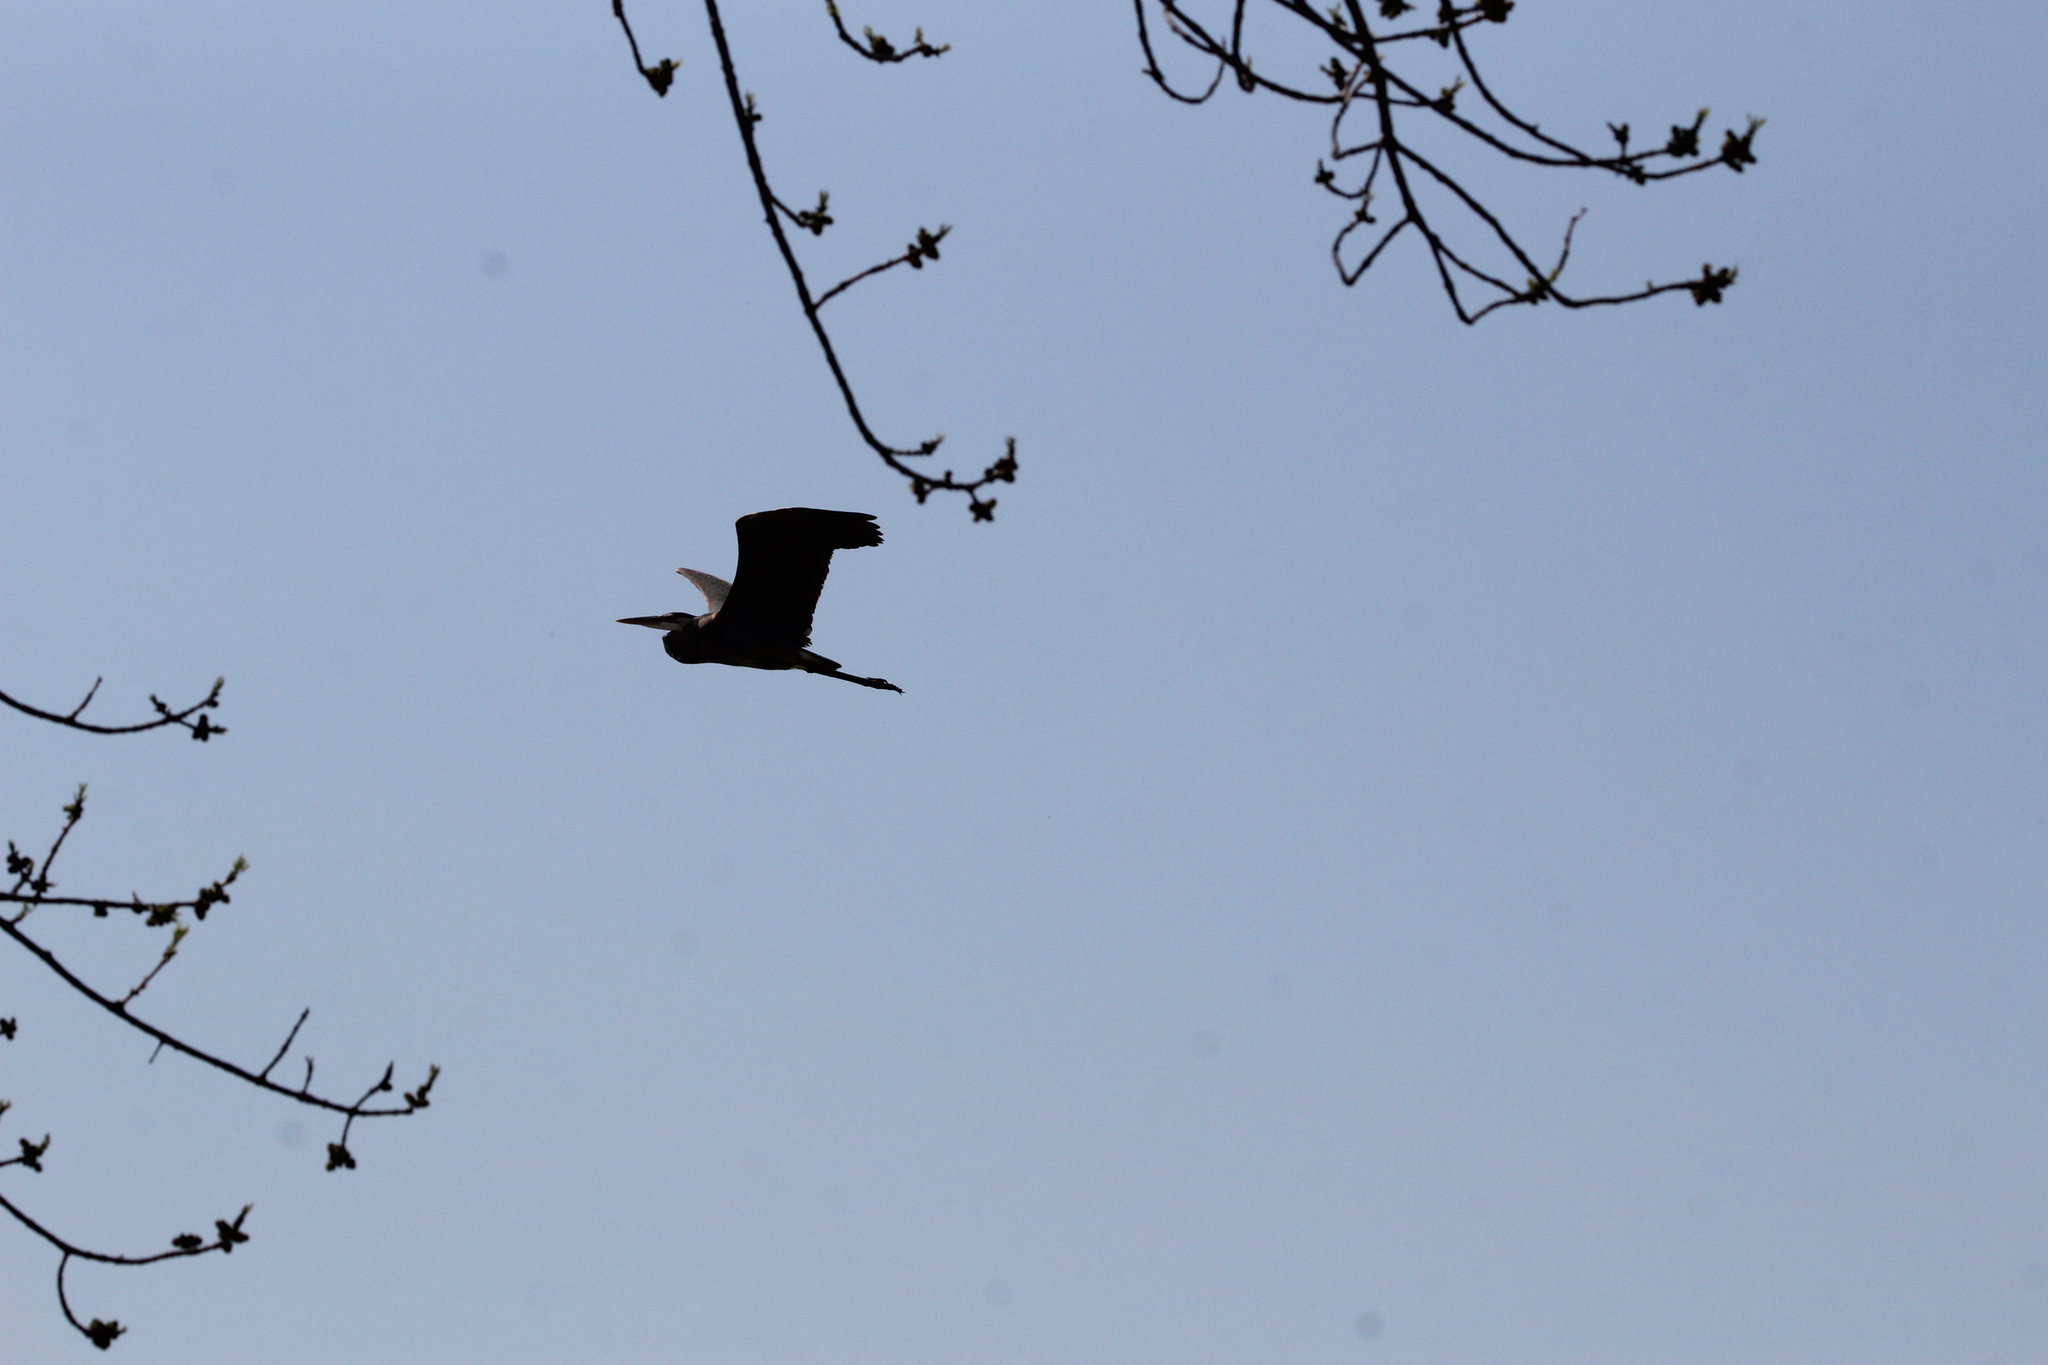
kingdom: Animalia
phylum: Chordata
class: Aves
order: Pelecaniformes
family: Ardeidae
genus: Ardea
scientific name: Ardea herodias
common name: Great blue heron
